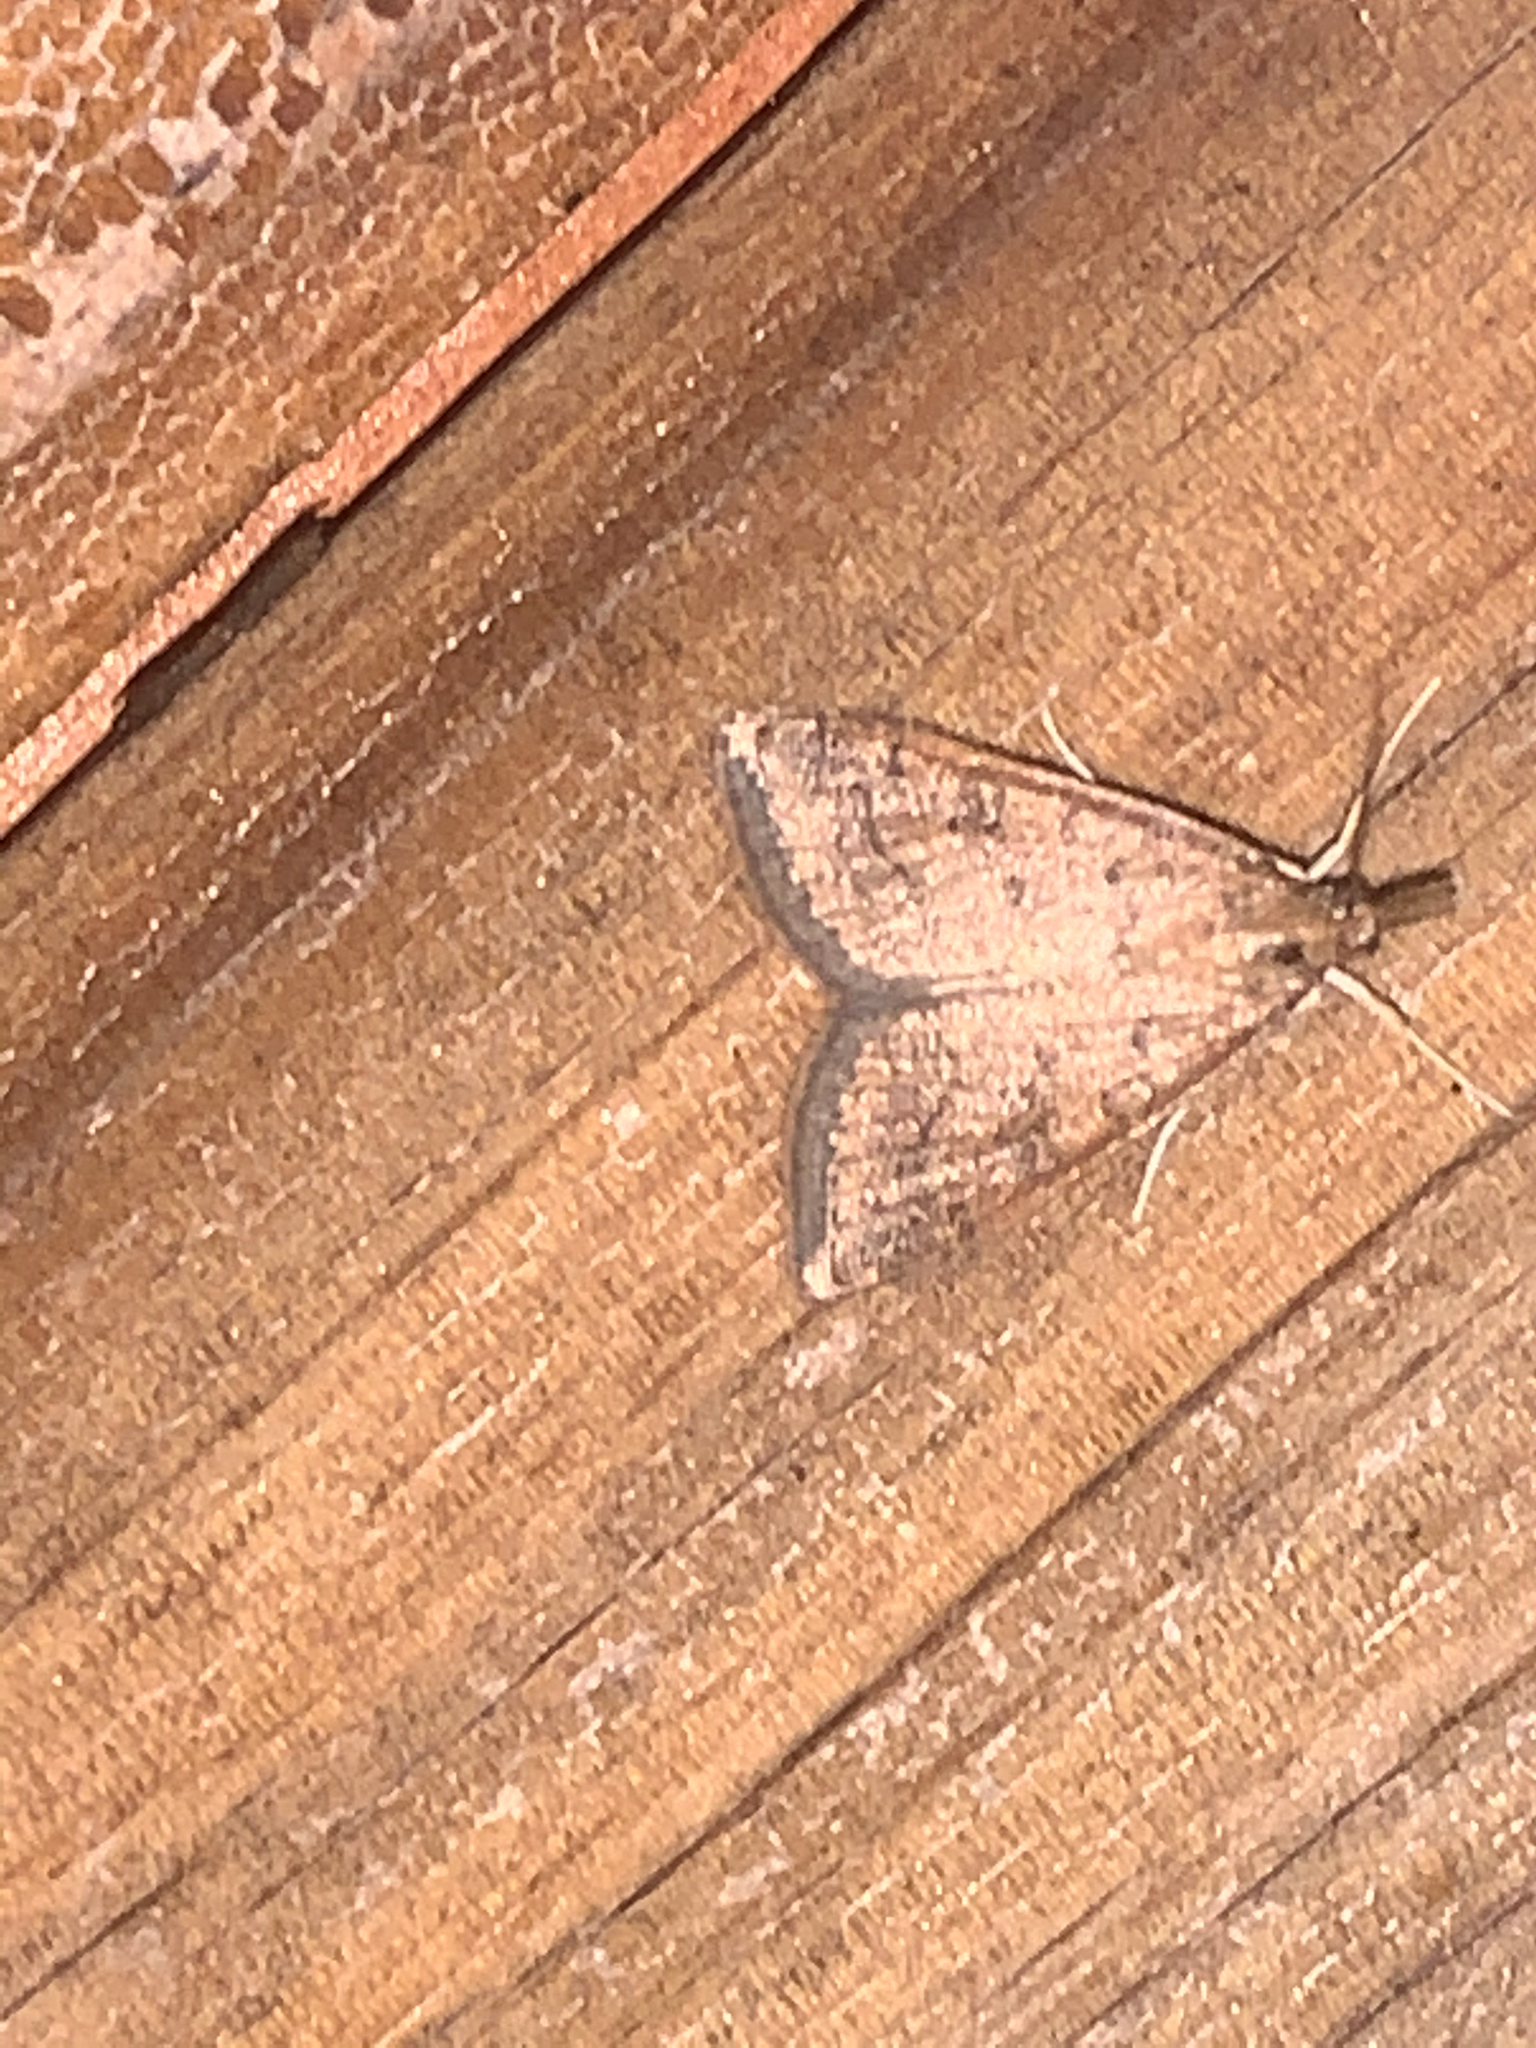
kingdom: Animalia
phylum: Arthropoda
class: Insecta
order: Lepidoptera
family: Crambidae
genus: Udea
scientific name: Udea rubigalis
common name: Celery leaftier moth
